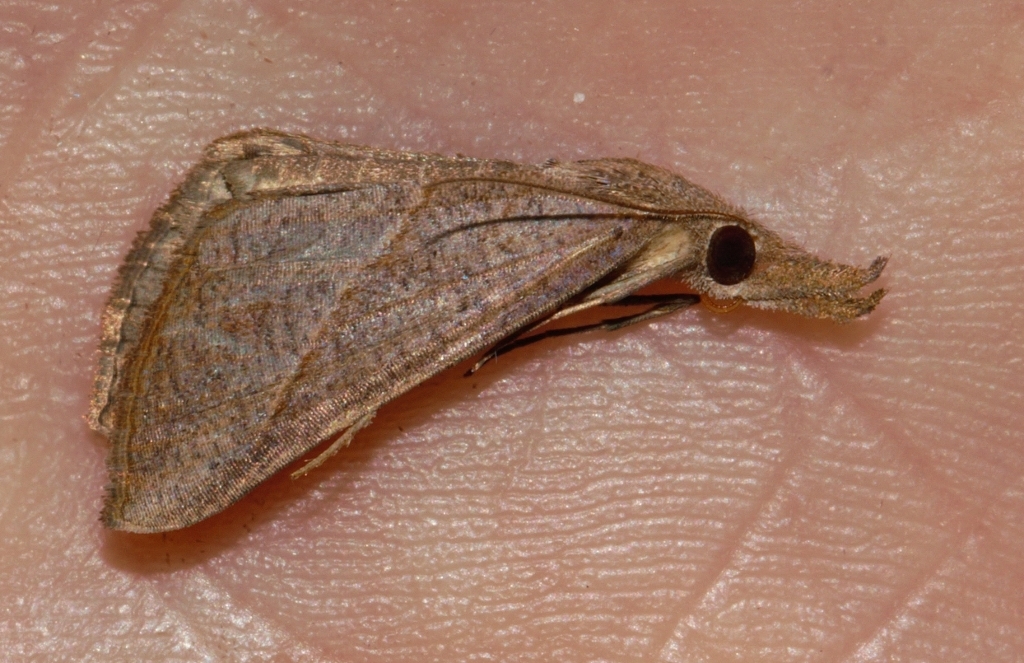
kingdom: Animalia
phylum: Arthropoda
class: Insecta
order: Lepidoptera
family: Erebidae
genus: Hypena
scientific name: Hypena lividalis
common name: Chevron snout
